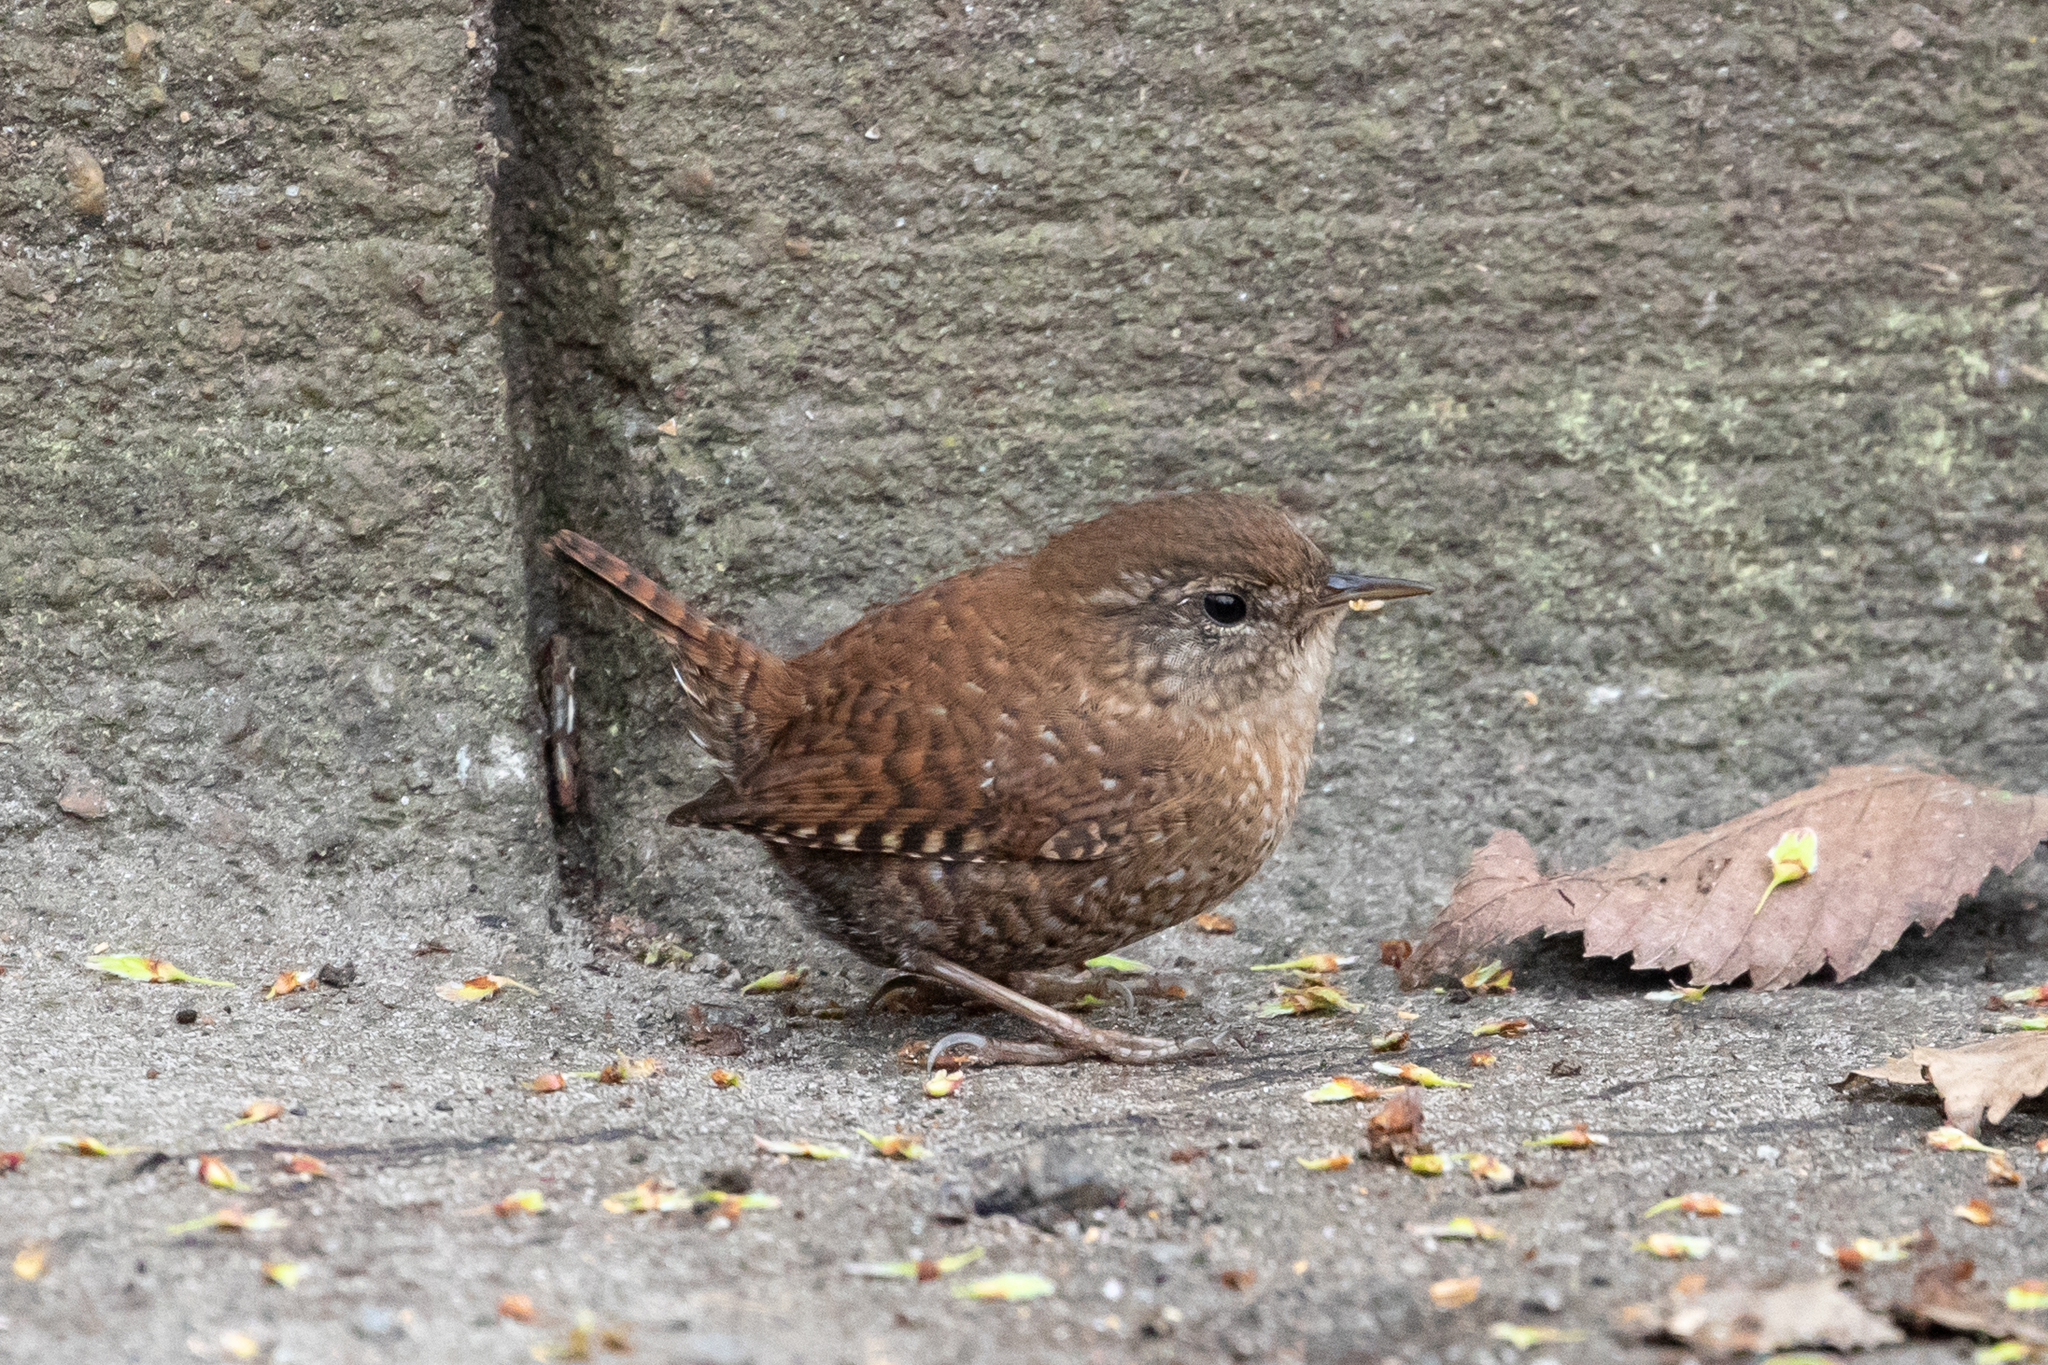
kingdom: Animalia
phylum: Chordata
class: Aves
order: Passeriformes
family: Troglodytidae
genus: Troglodytes
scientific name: Troglodytes hiemalis
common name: Winter wren
